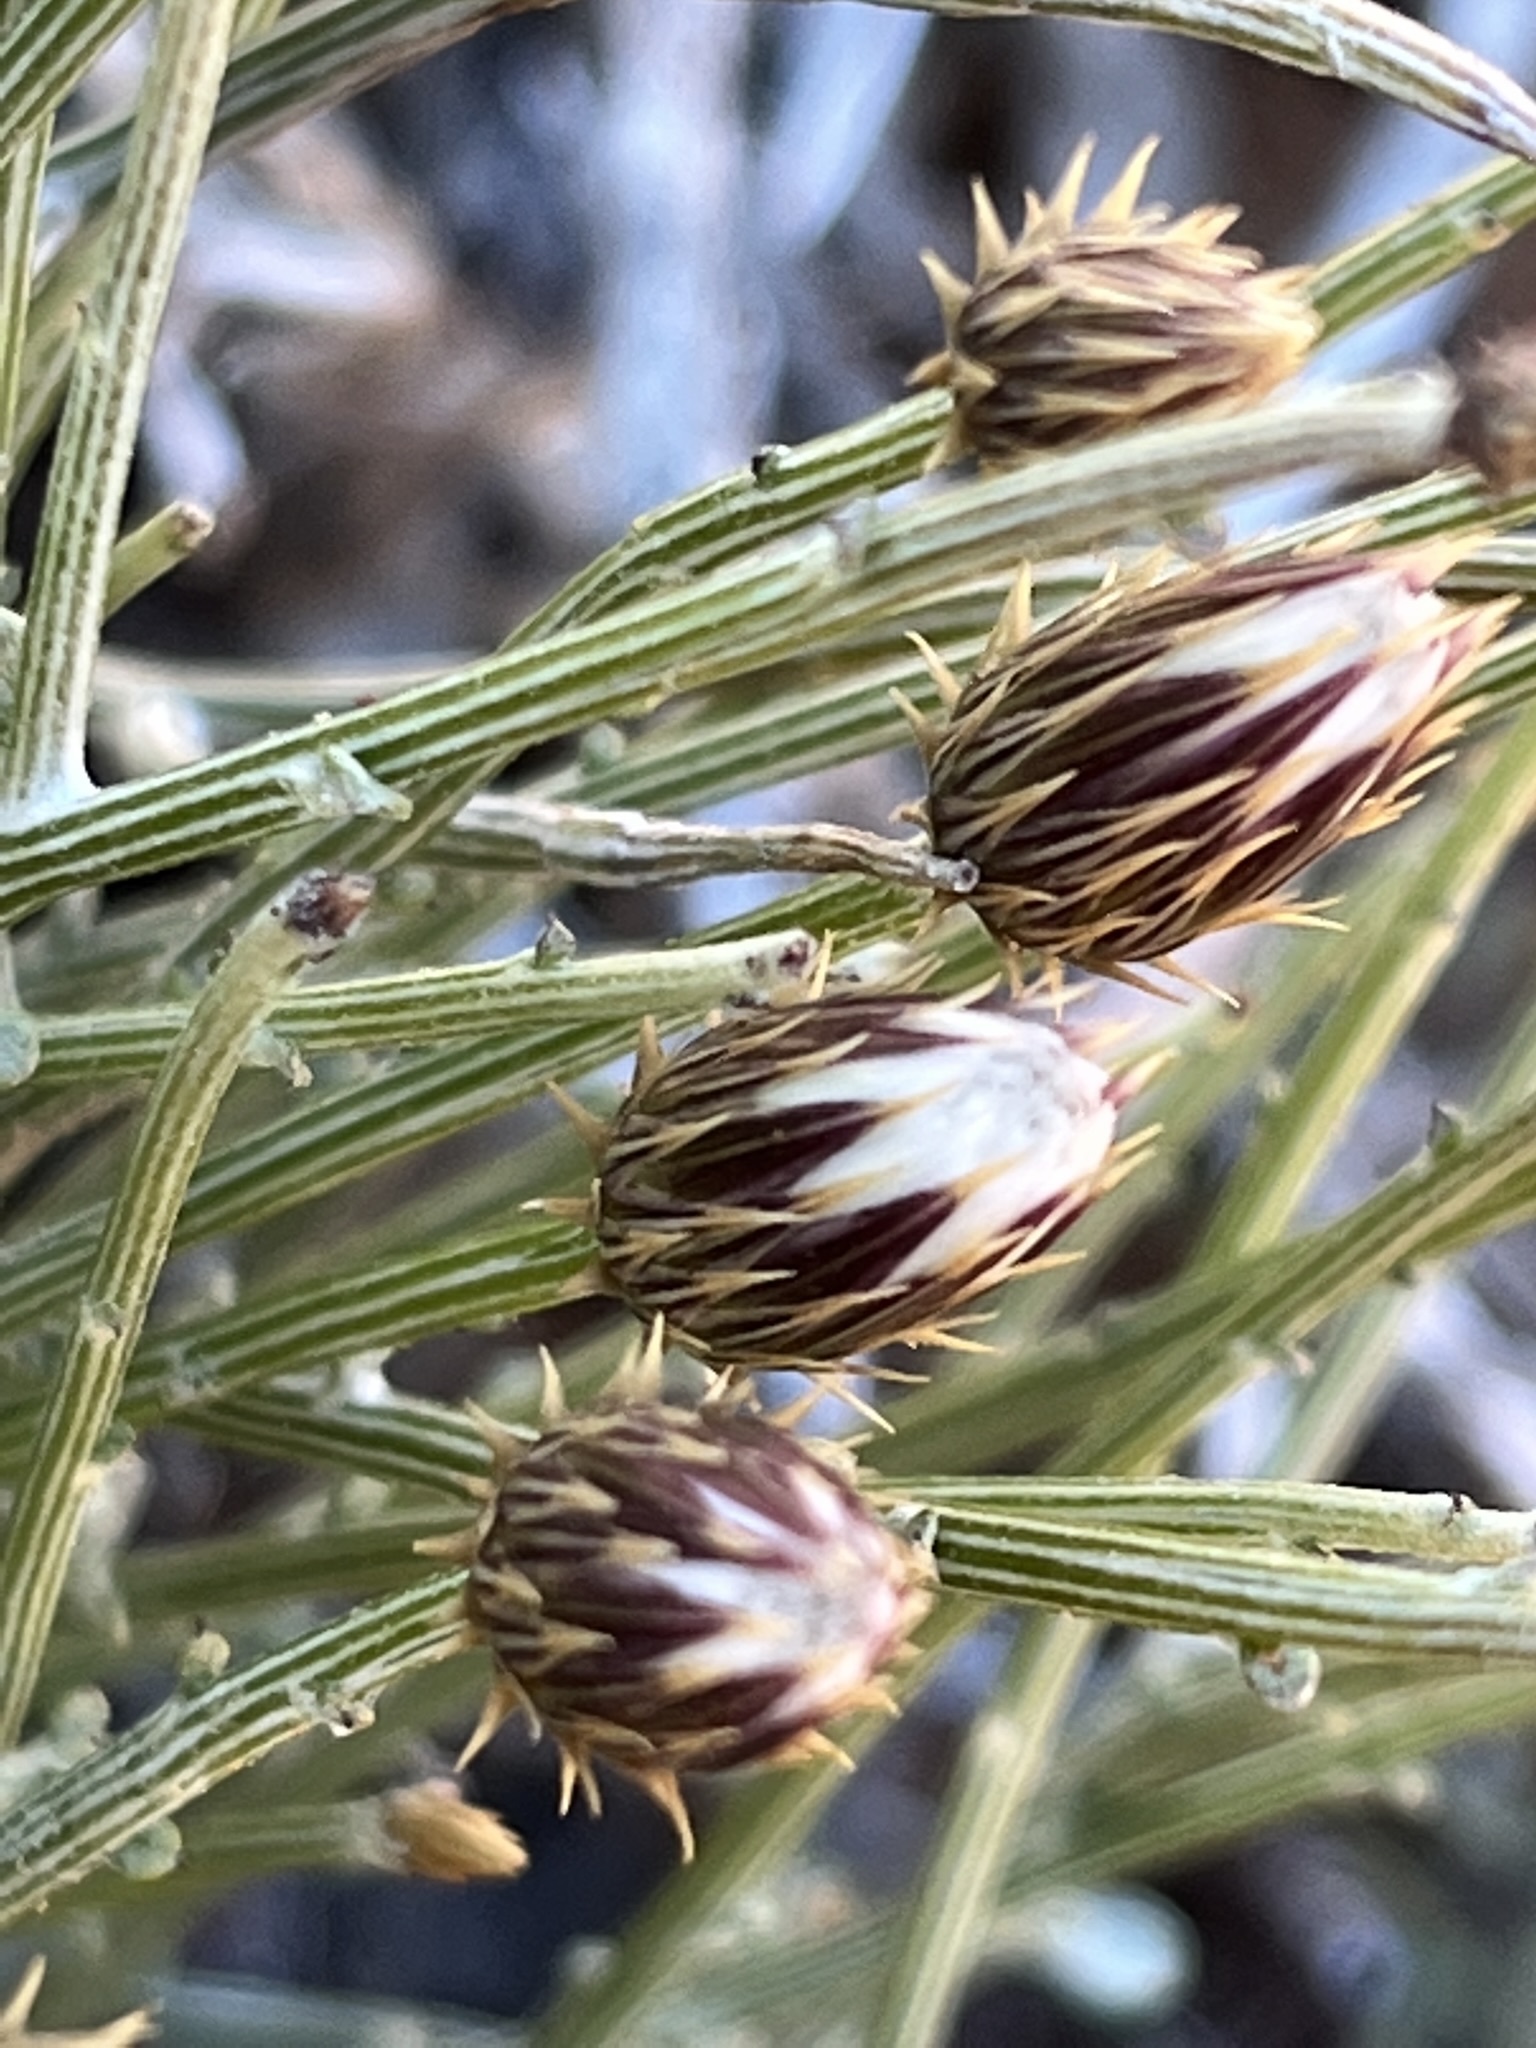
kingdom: Plantae
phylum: Tracheophyta
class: Magnoliopsida
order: Asterales
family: Asteraceae
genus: Dicoma
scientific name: Dicoma picta
